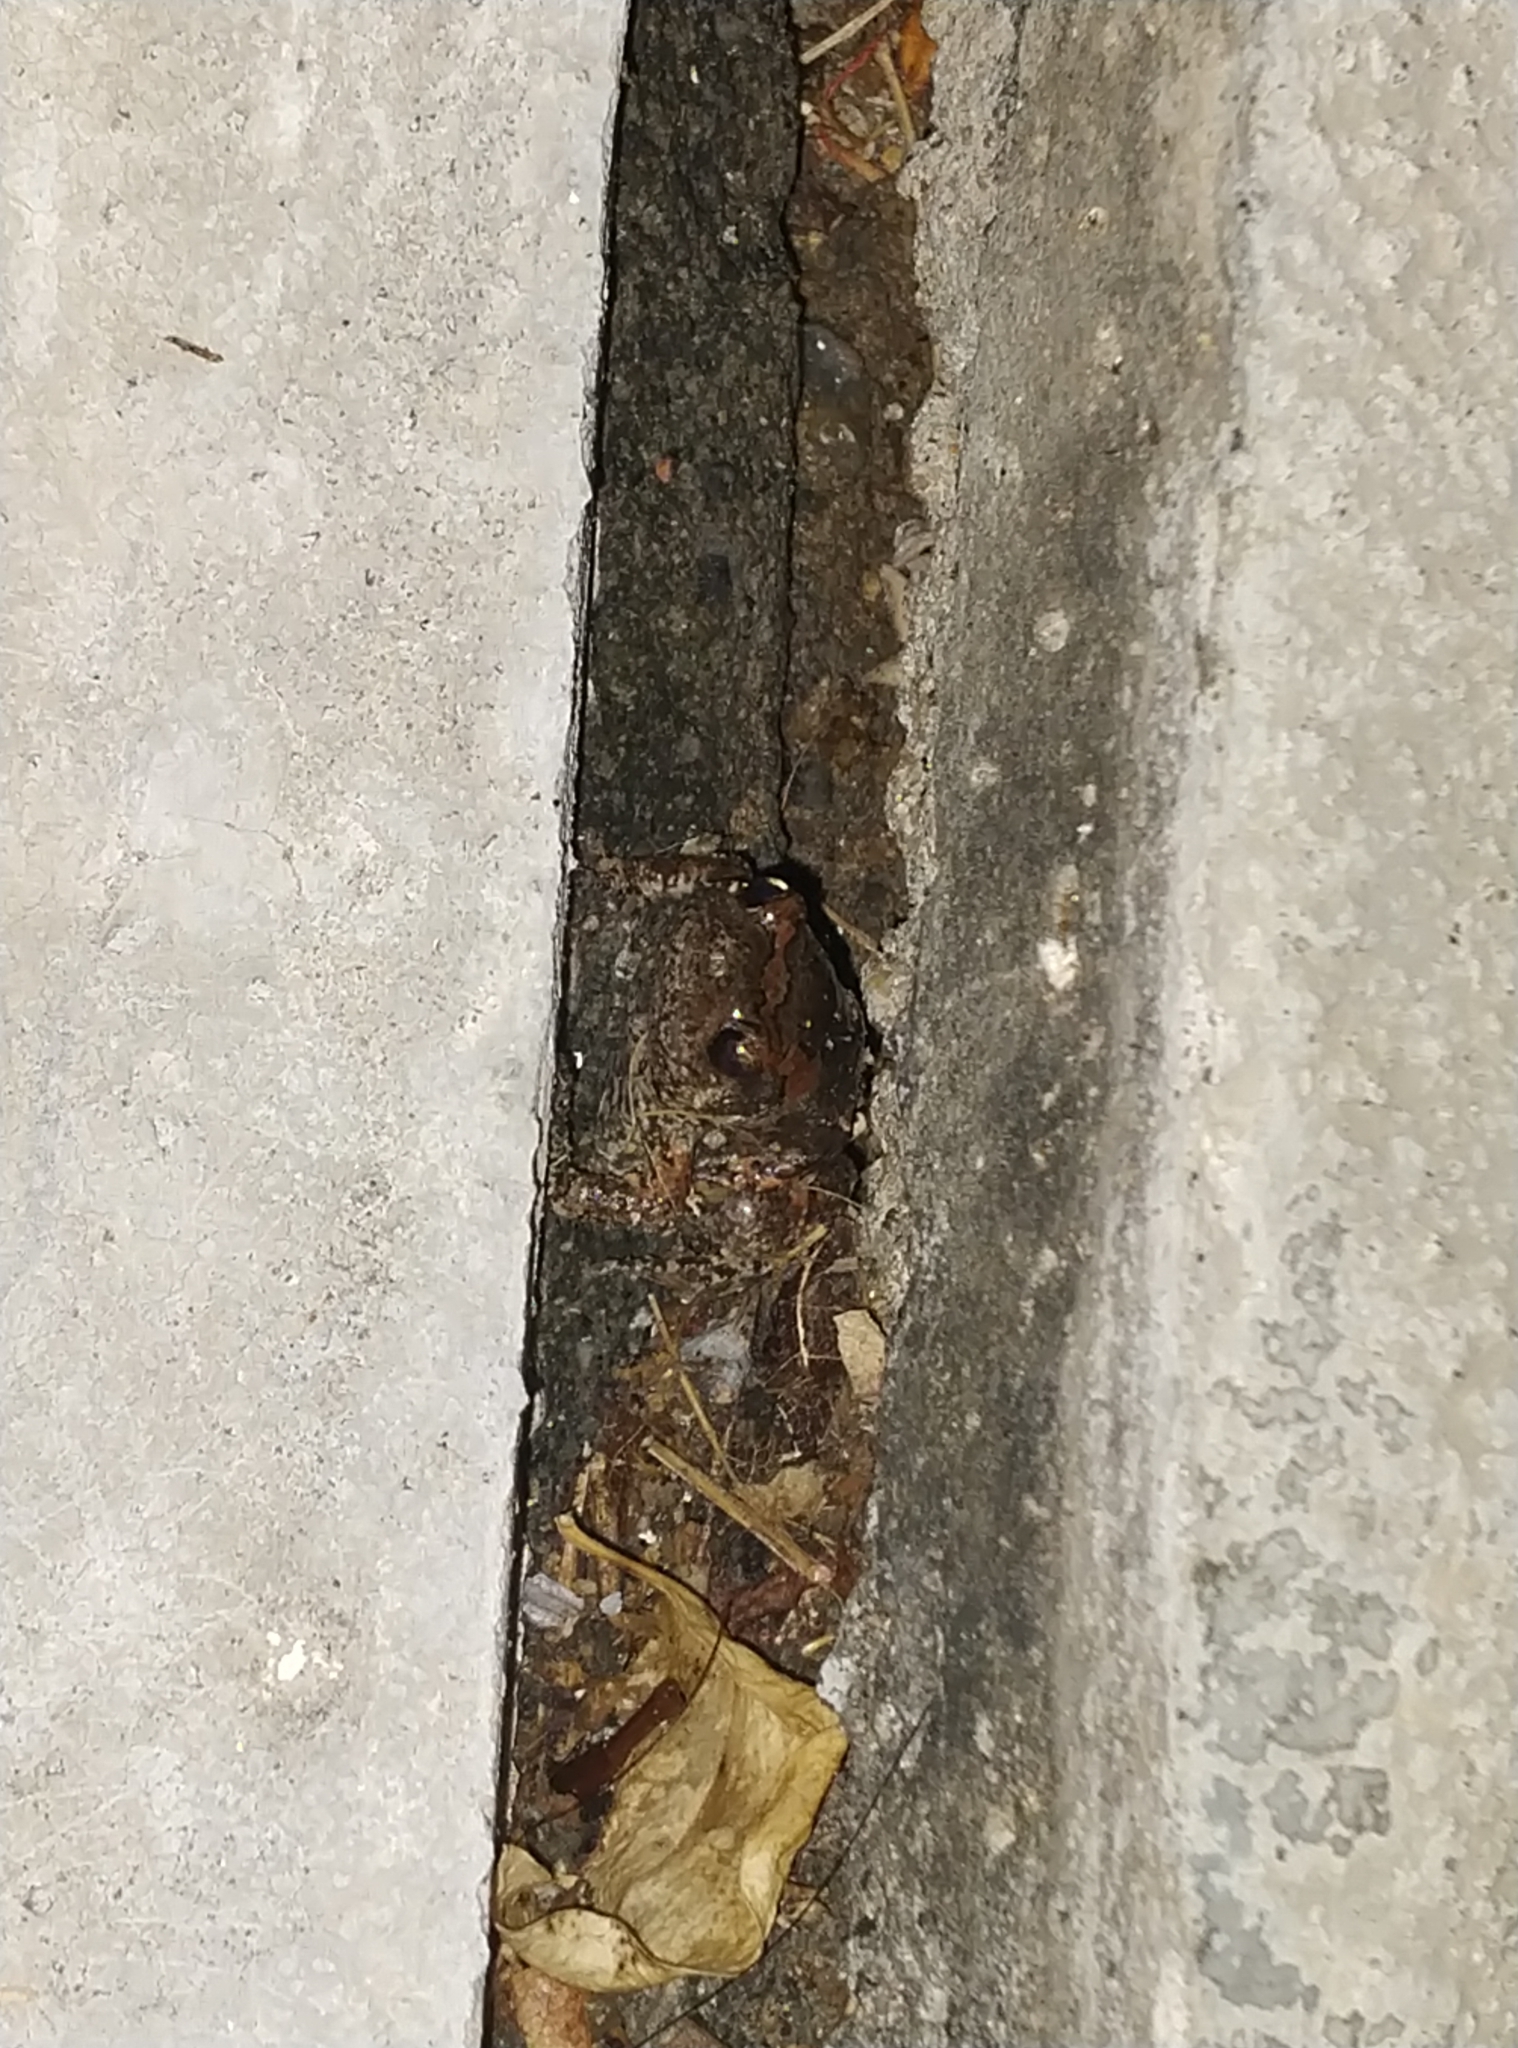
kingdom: Animalia
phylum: Chordata
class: Amphibia
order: Anura
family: Microhylidae
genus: Uperodon
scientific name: Uperodon taprobanicus
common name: Ceylon kaloula
